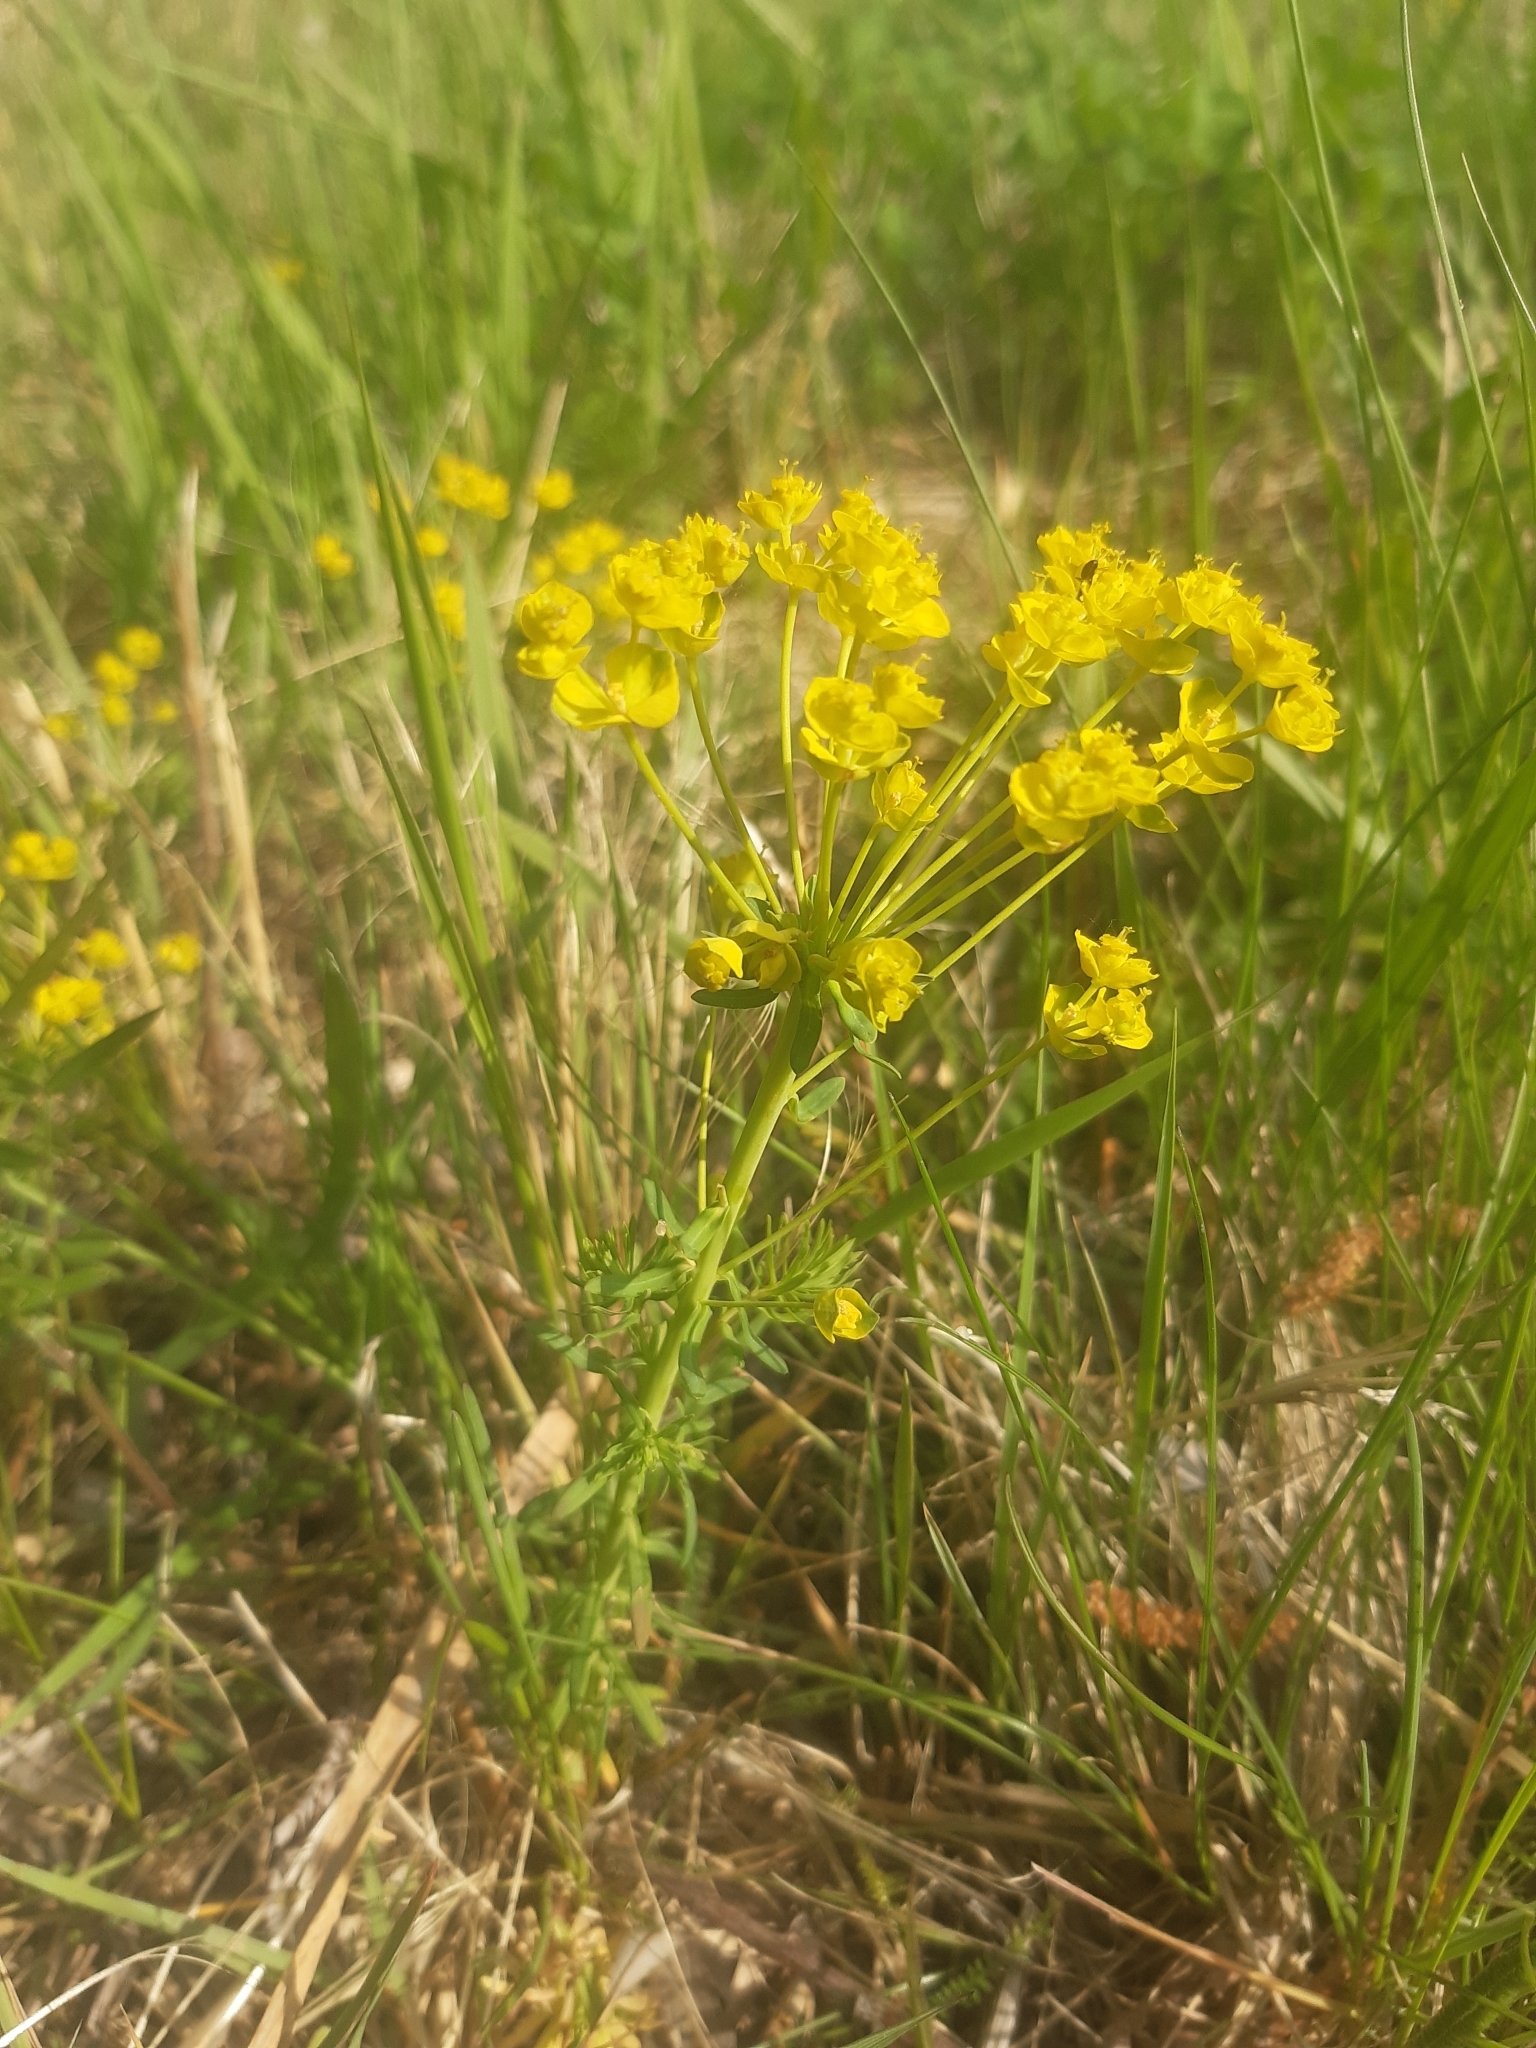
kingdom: Plantae
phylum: Tracheophyta
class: Magnoliopsida
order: Malpighiales
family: Euphorbiaceae
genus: Euphorbia
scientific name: Euphorbia cyparissias
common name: Cypress spurge
